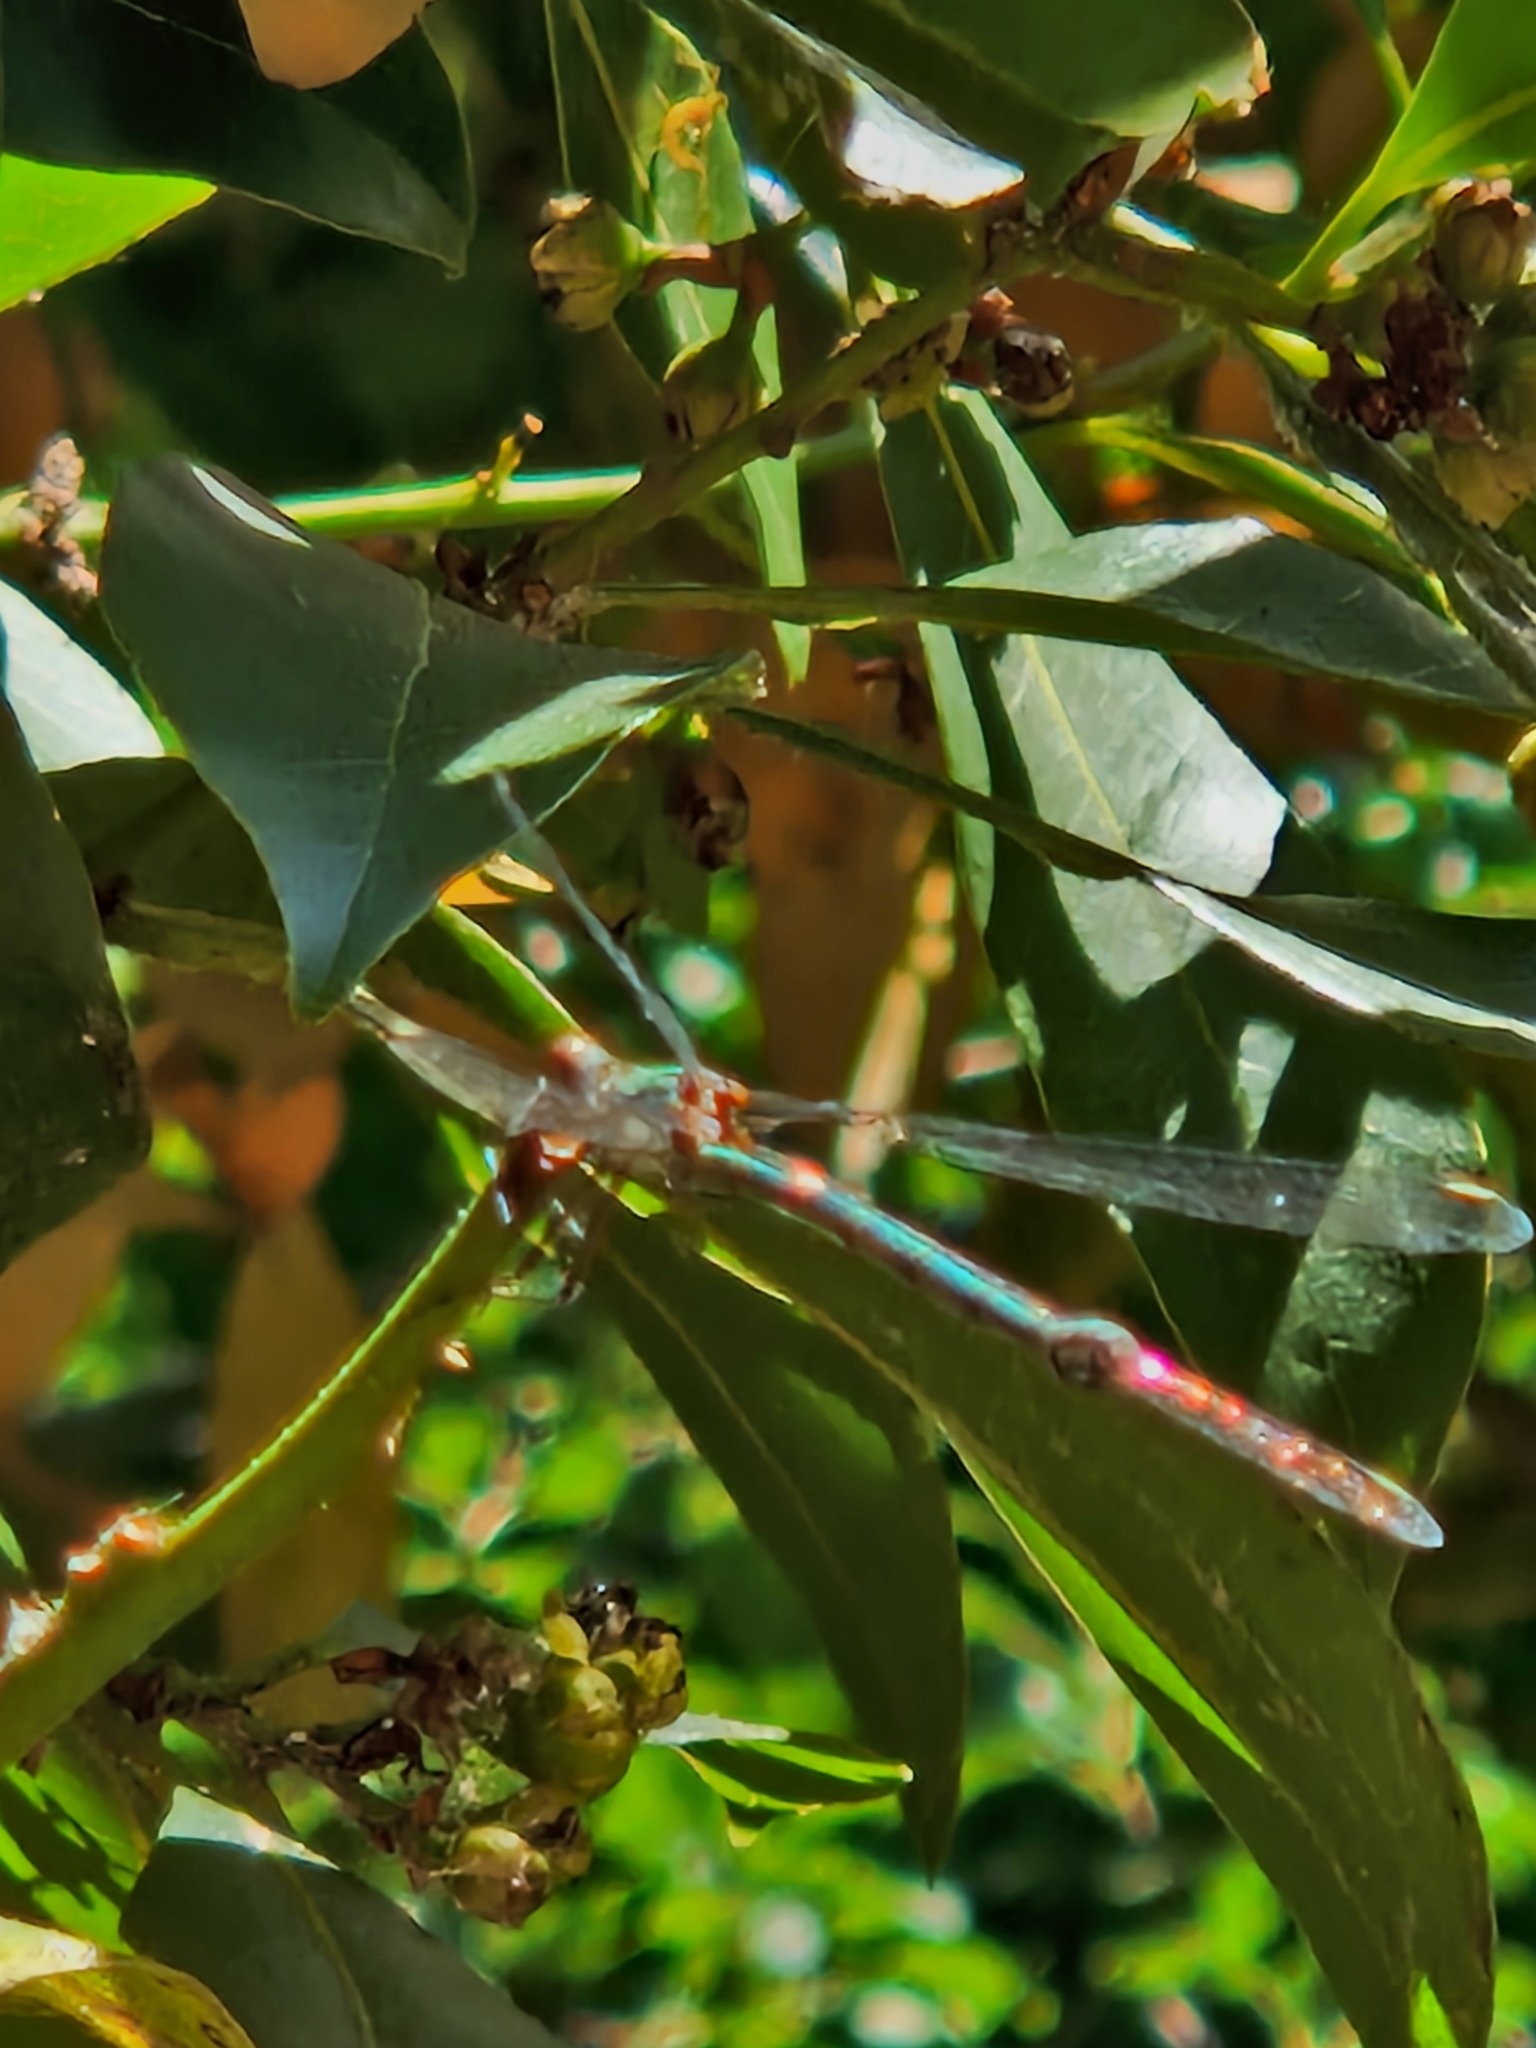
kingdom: Animalia
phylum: Arthropoda
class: Insecta
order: Odonata
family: Lestidae
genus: Chalcolestes
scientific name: Chalcolestes viridis
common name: Green emerald damselfly
